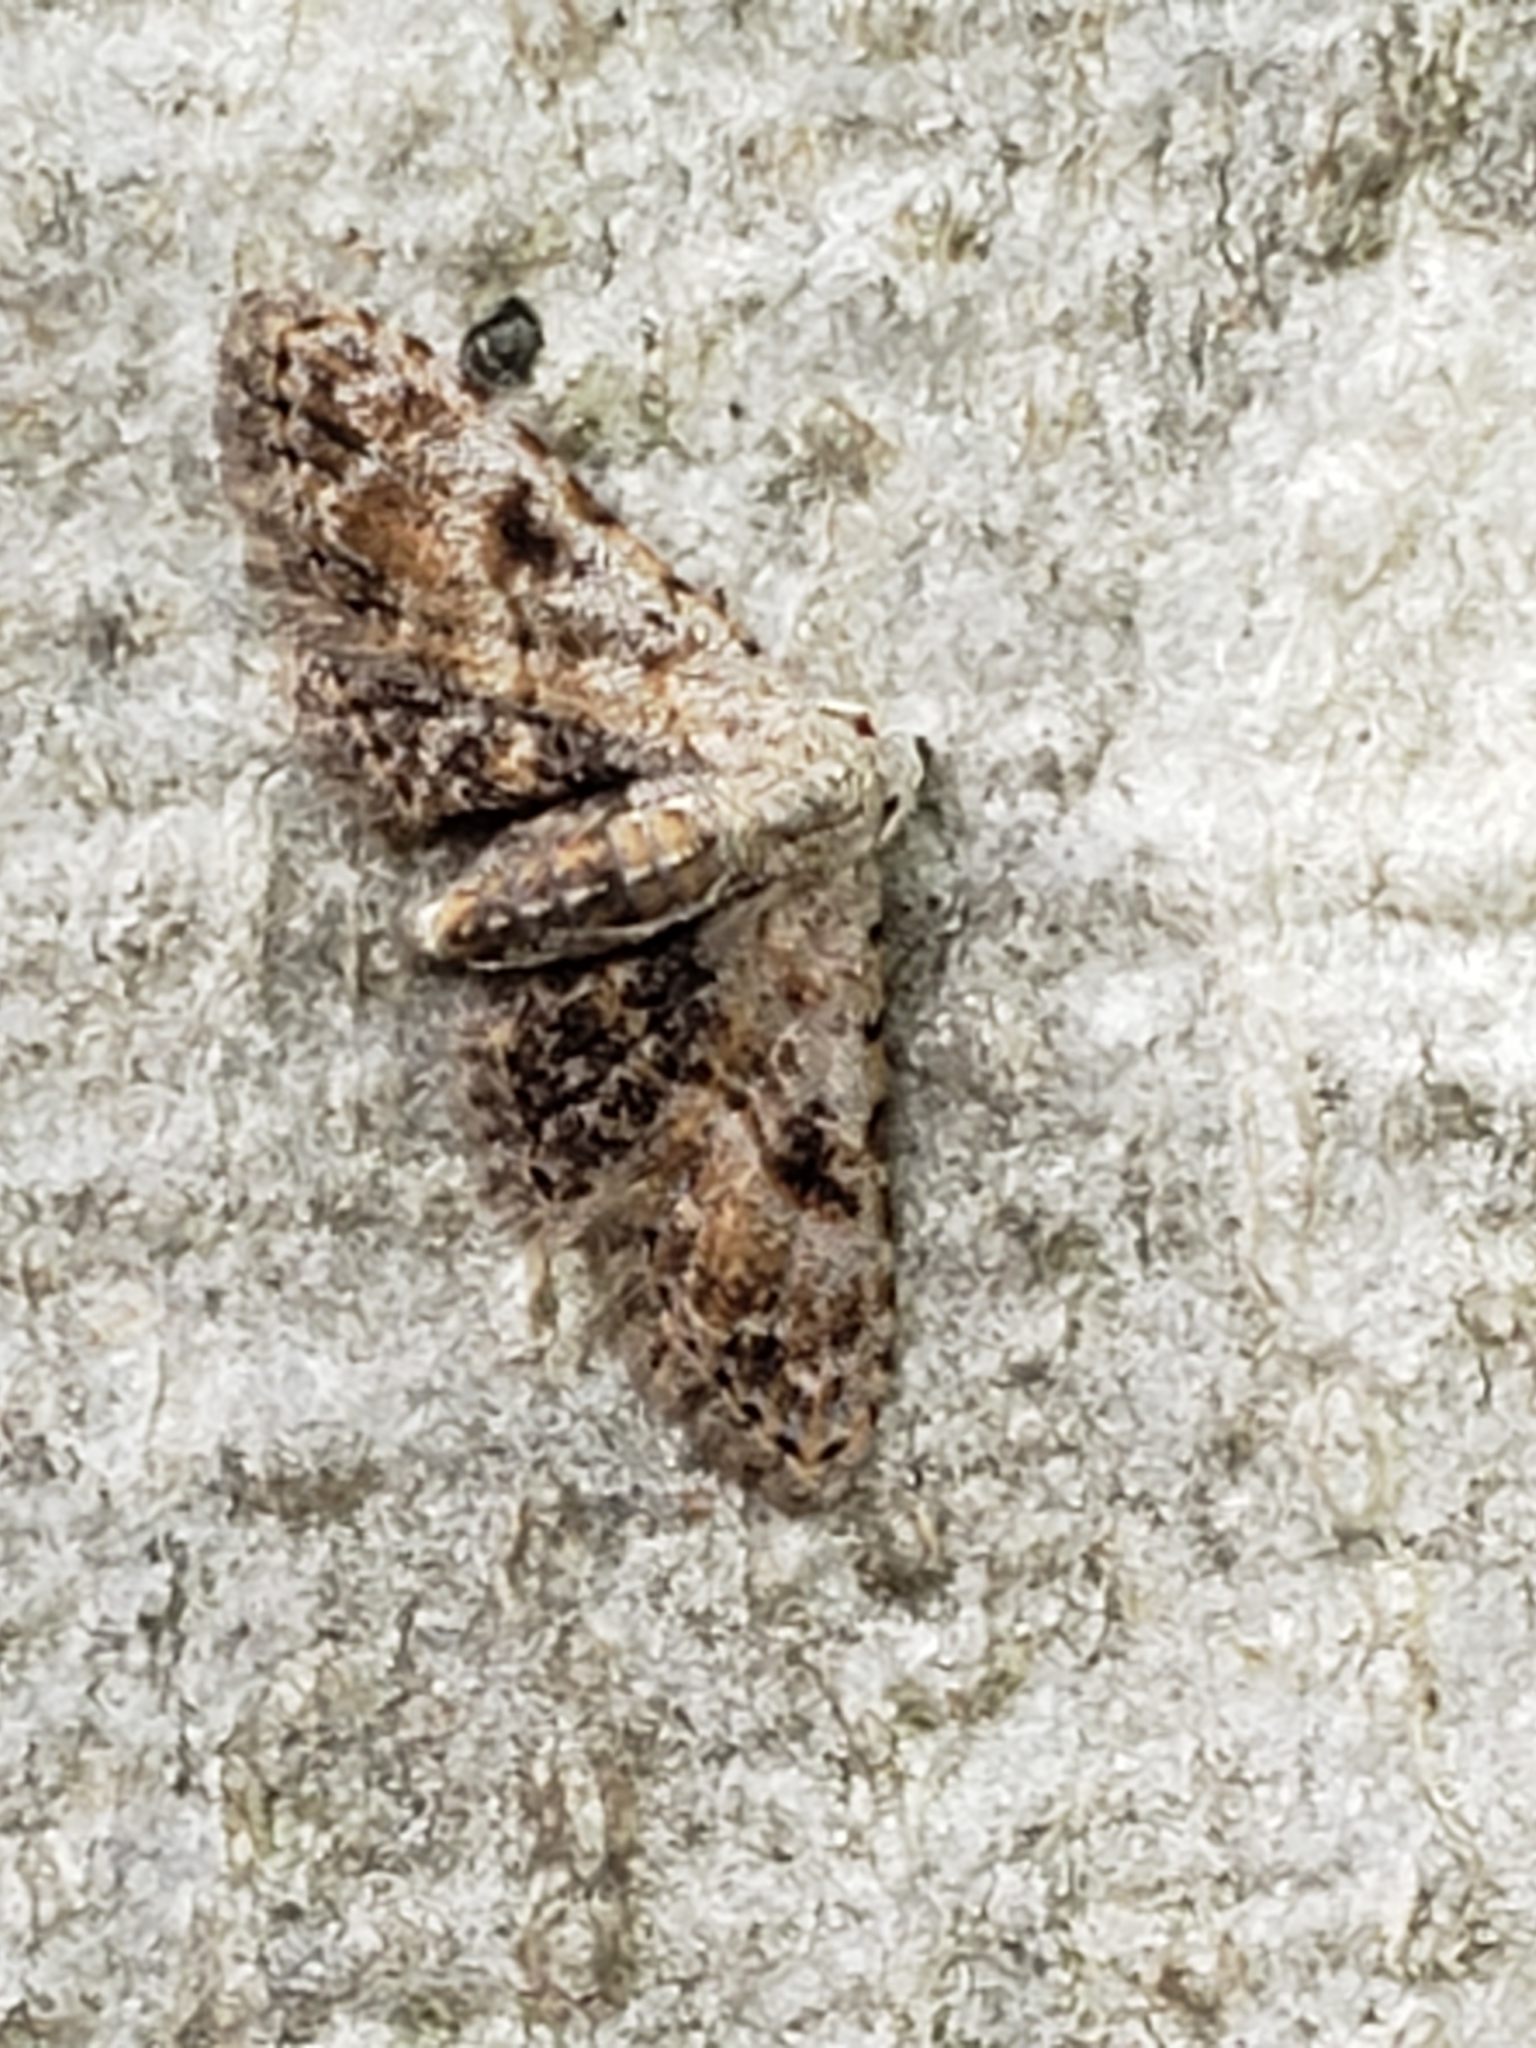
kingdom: Animalia
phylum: Arthropoda
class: Insecta
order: Lepidoptera
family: Erebidae
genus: Sigela
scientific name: Sigela brauneata
